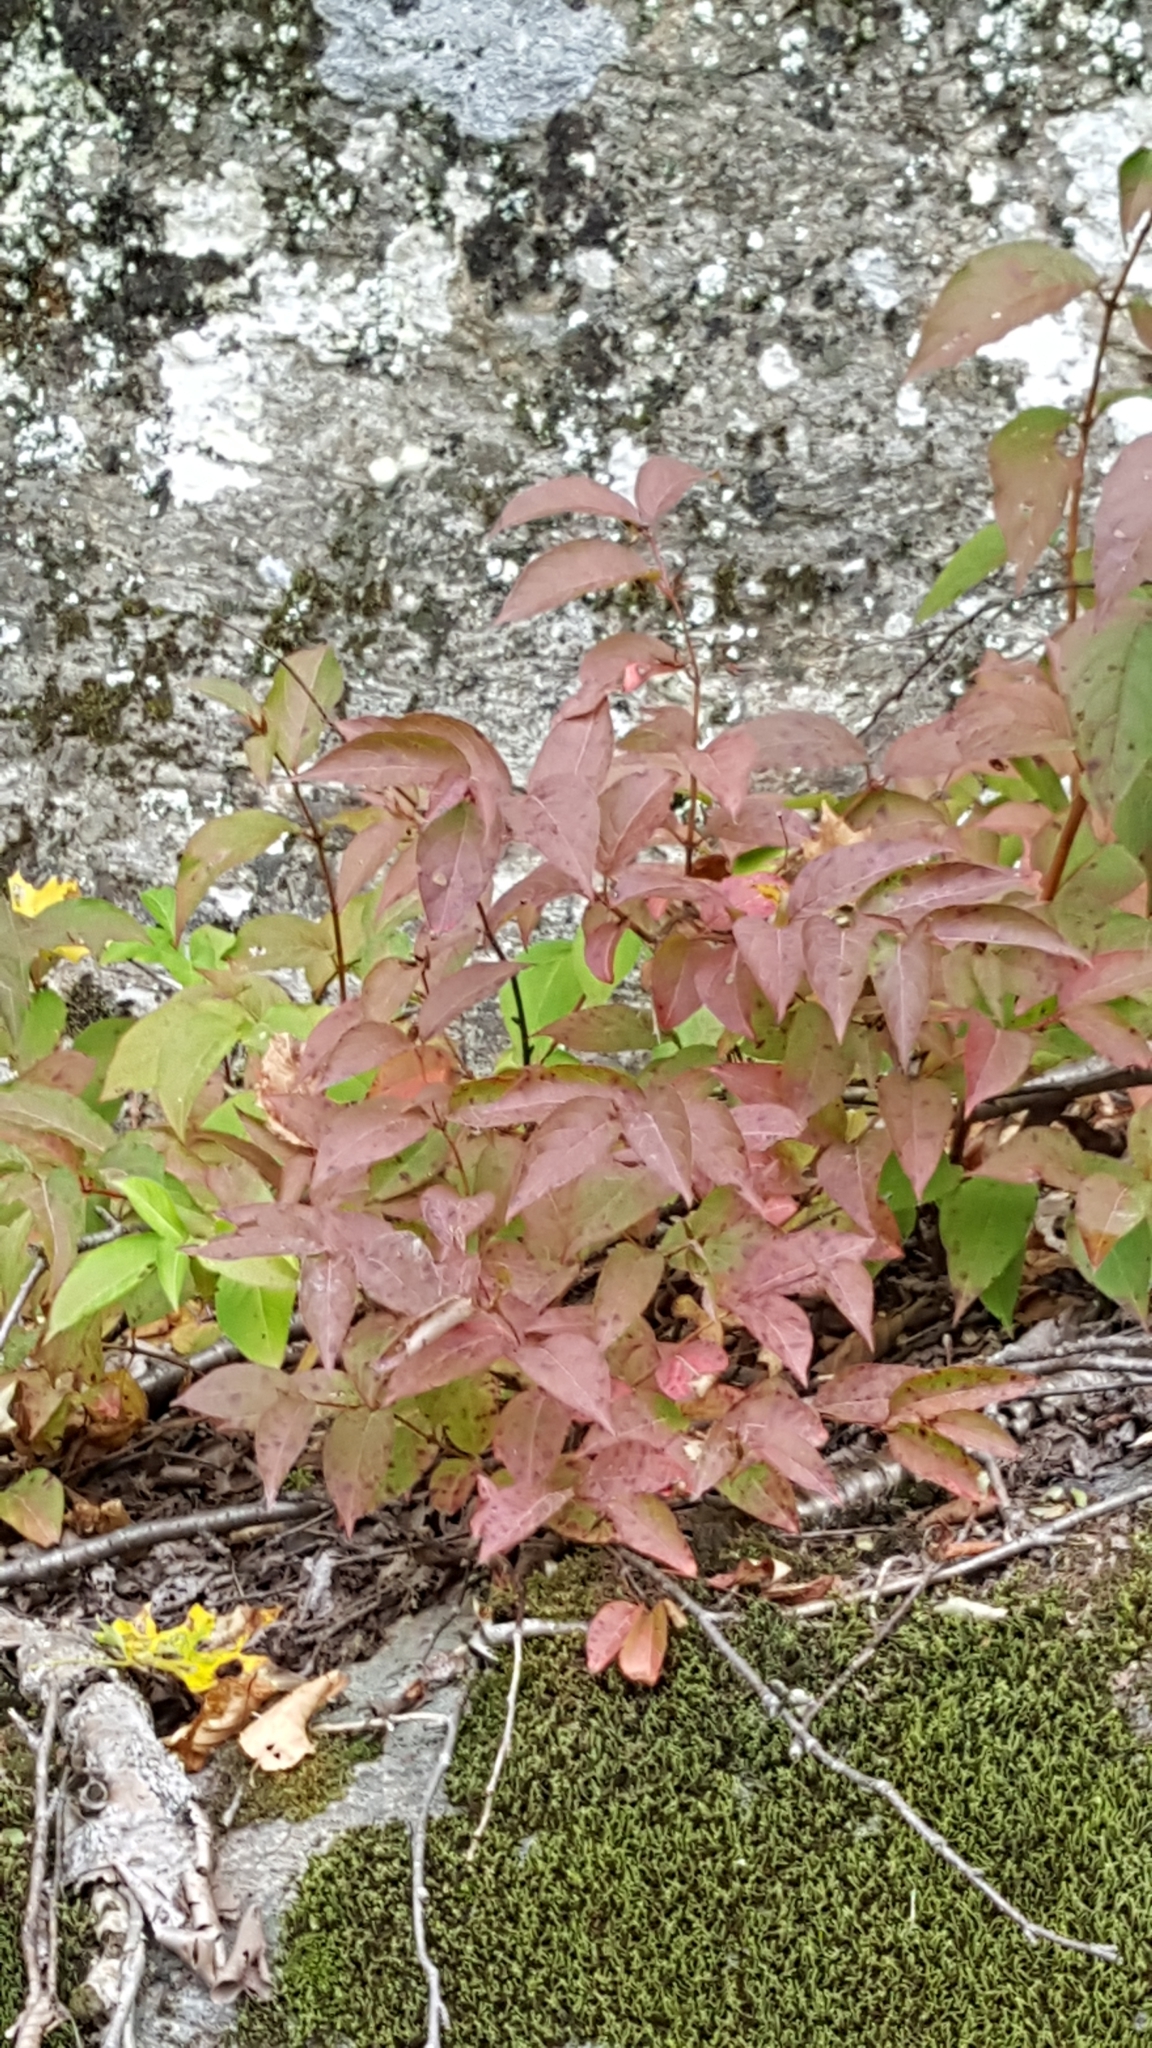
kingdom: Plantae
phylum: Tracheophyta
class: Magnoliopsida
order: Dipsacales
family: Caprifoliaceae
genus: Diervilla
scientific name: Diervilla lonicera
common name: Bush-honeysuckle
